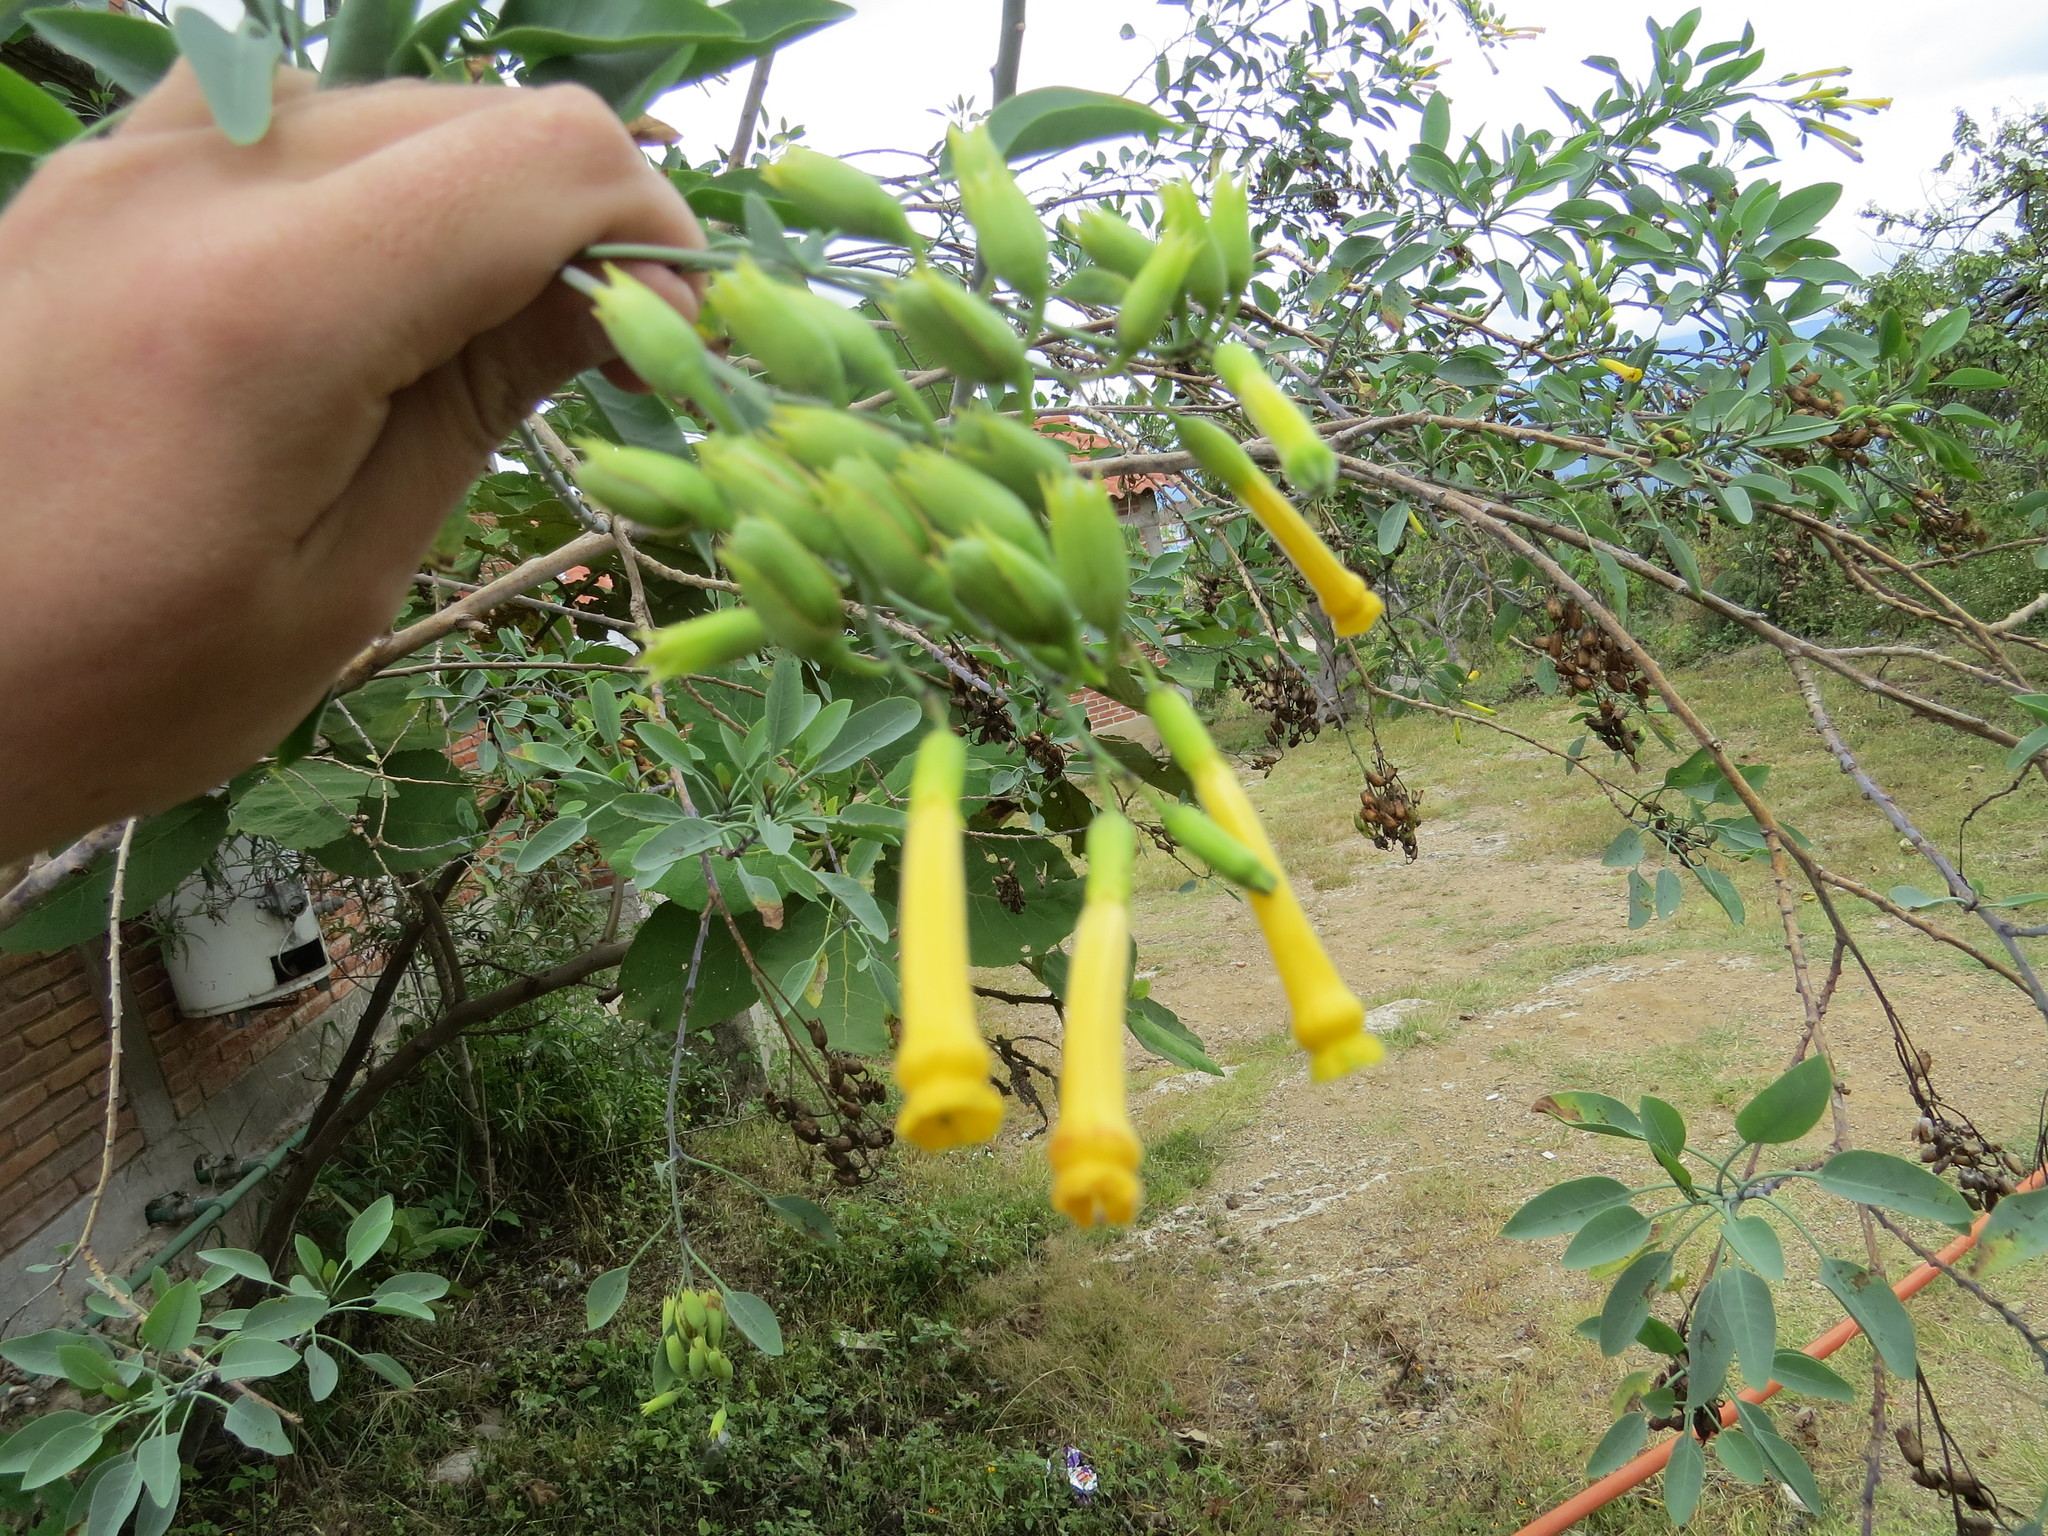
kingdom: Plantae
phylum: Tracheophyta
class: Magnoliopsida
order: Solanales
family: Solanaceae
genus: Nicotiana
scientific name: Nicotiana glauca
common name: Tree tobacco
